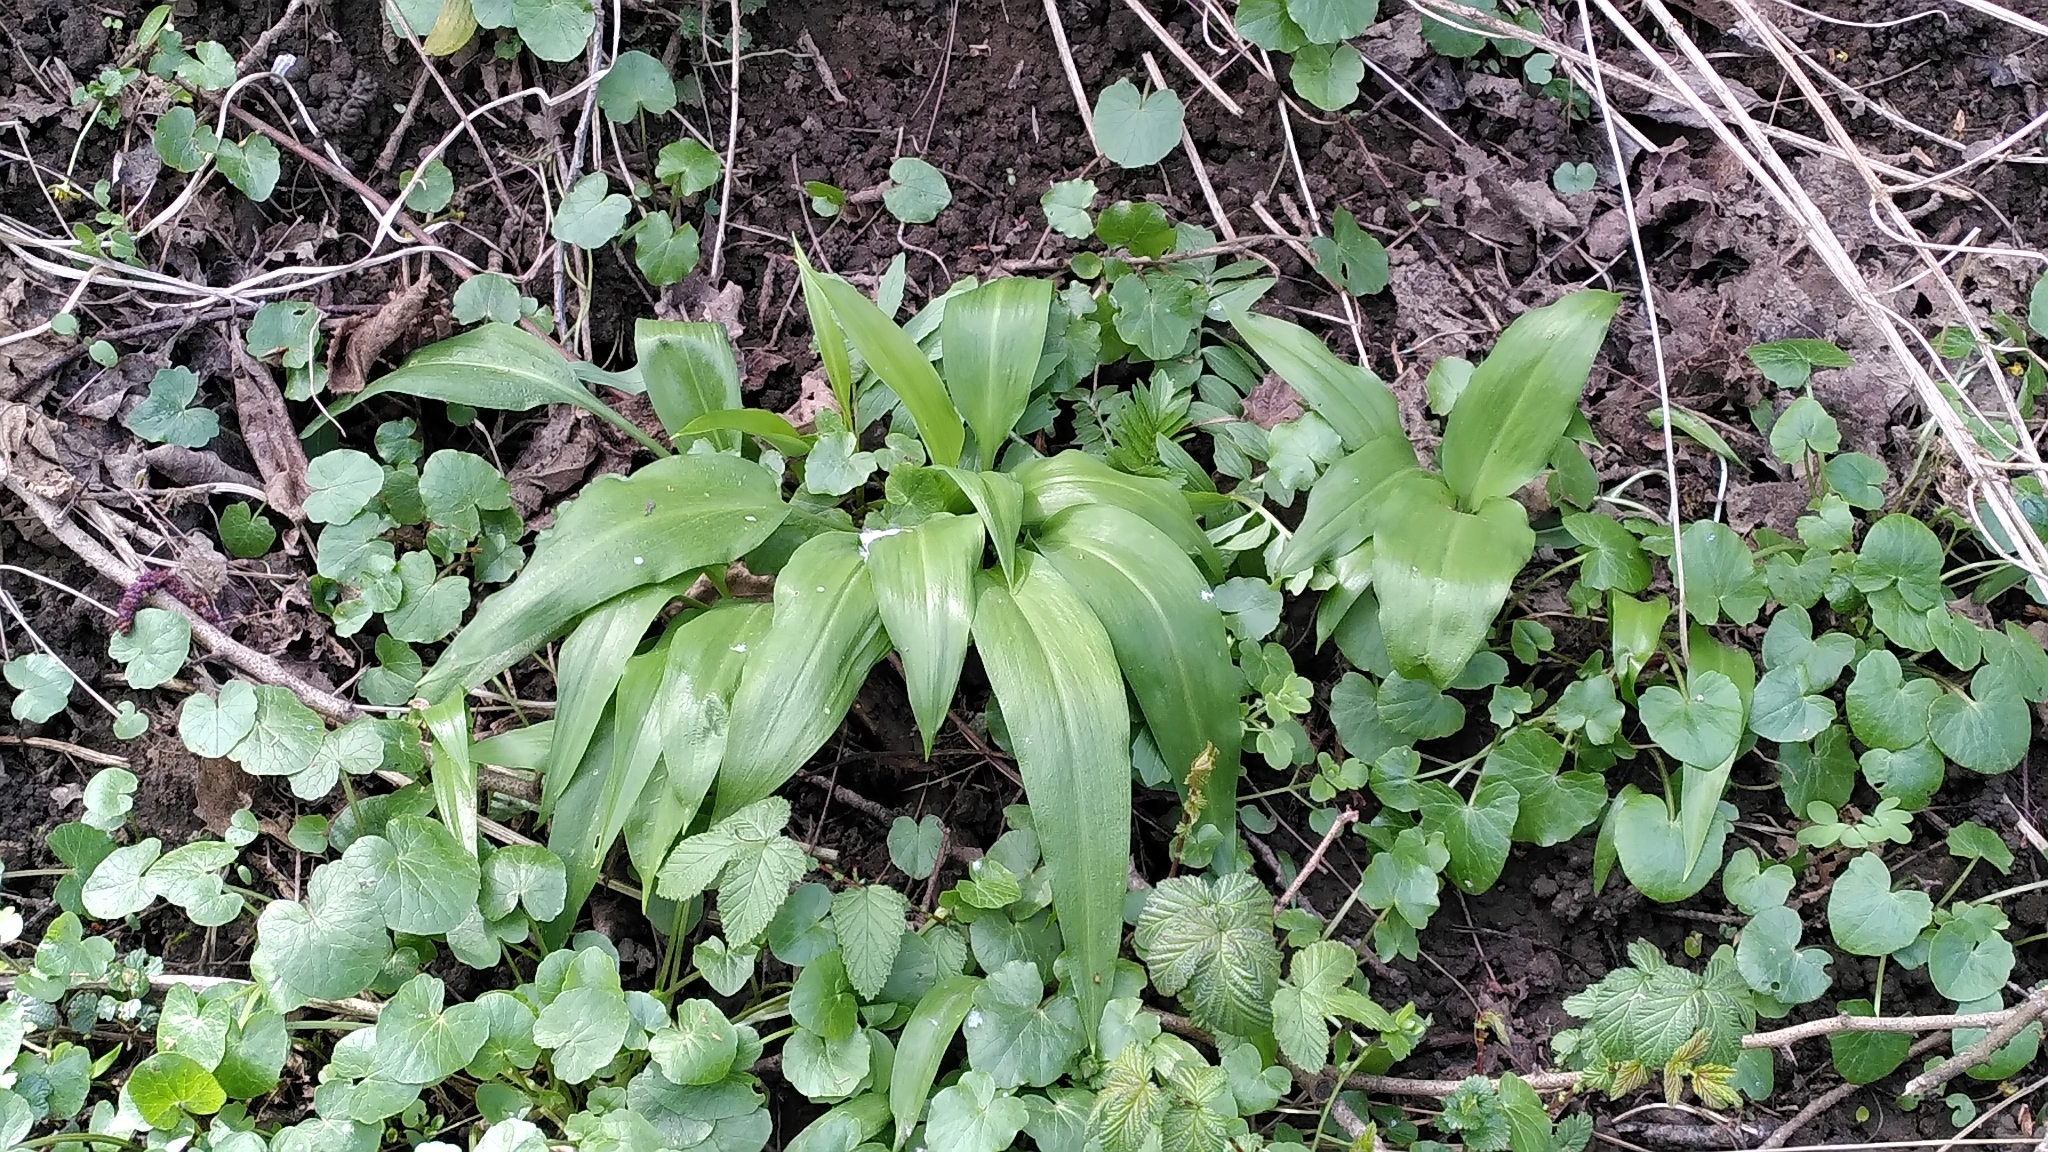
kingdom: Plantae
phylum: Tracheophyta
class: Liliopsida
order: Asparagales
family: Amaryllidaceae
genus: Allium
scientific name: Allium ursinum
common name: Ramsons
